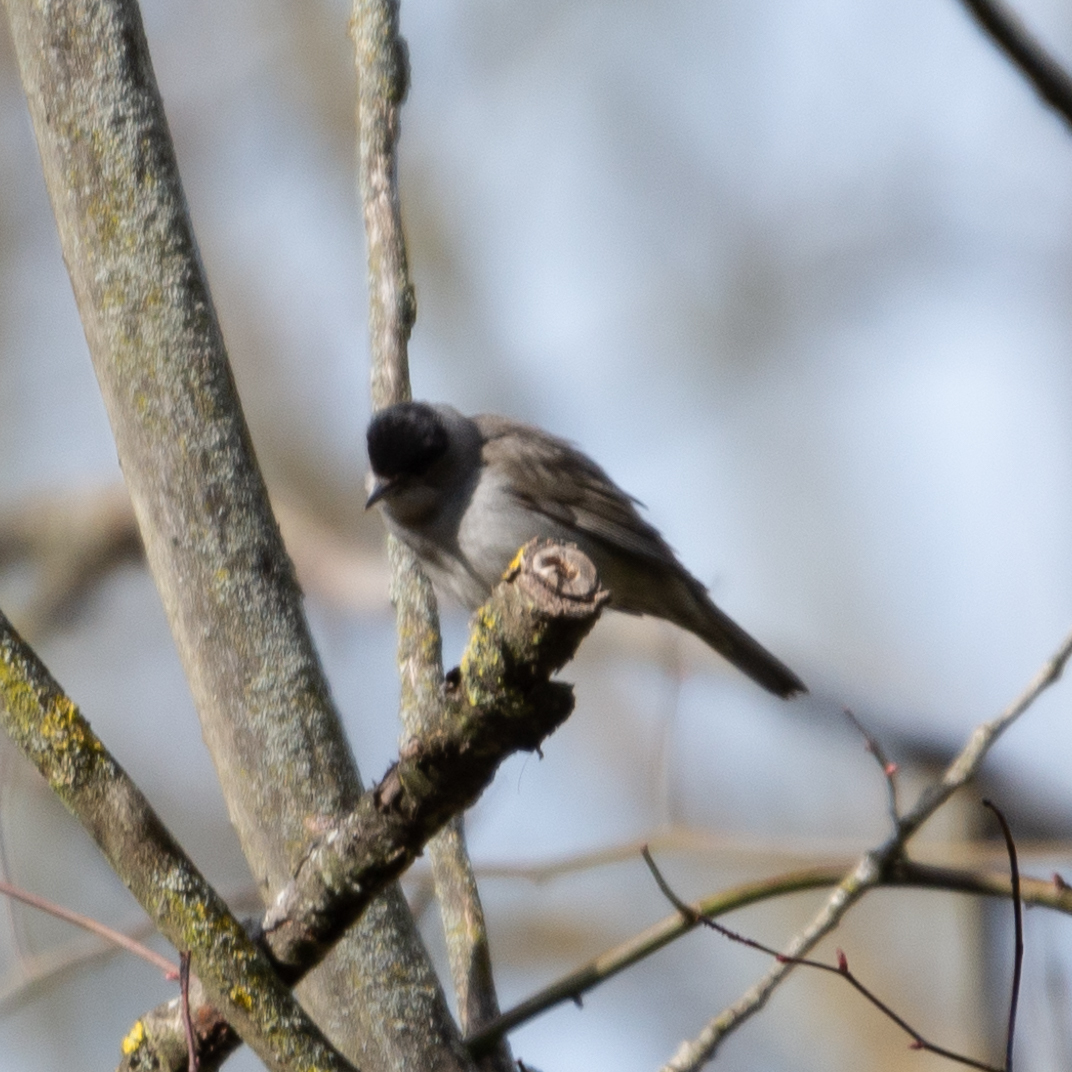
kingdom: Animalia
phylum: Chordata
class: Aves
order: Passeriformes
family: Sylviidae
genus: Sylvia
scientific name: Sylvia atricapilla
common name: Eurasian blackcap
